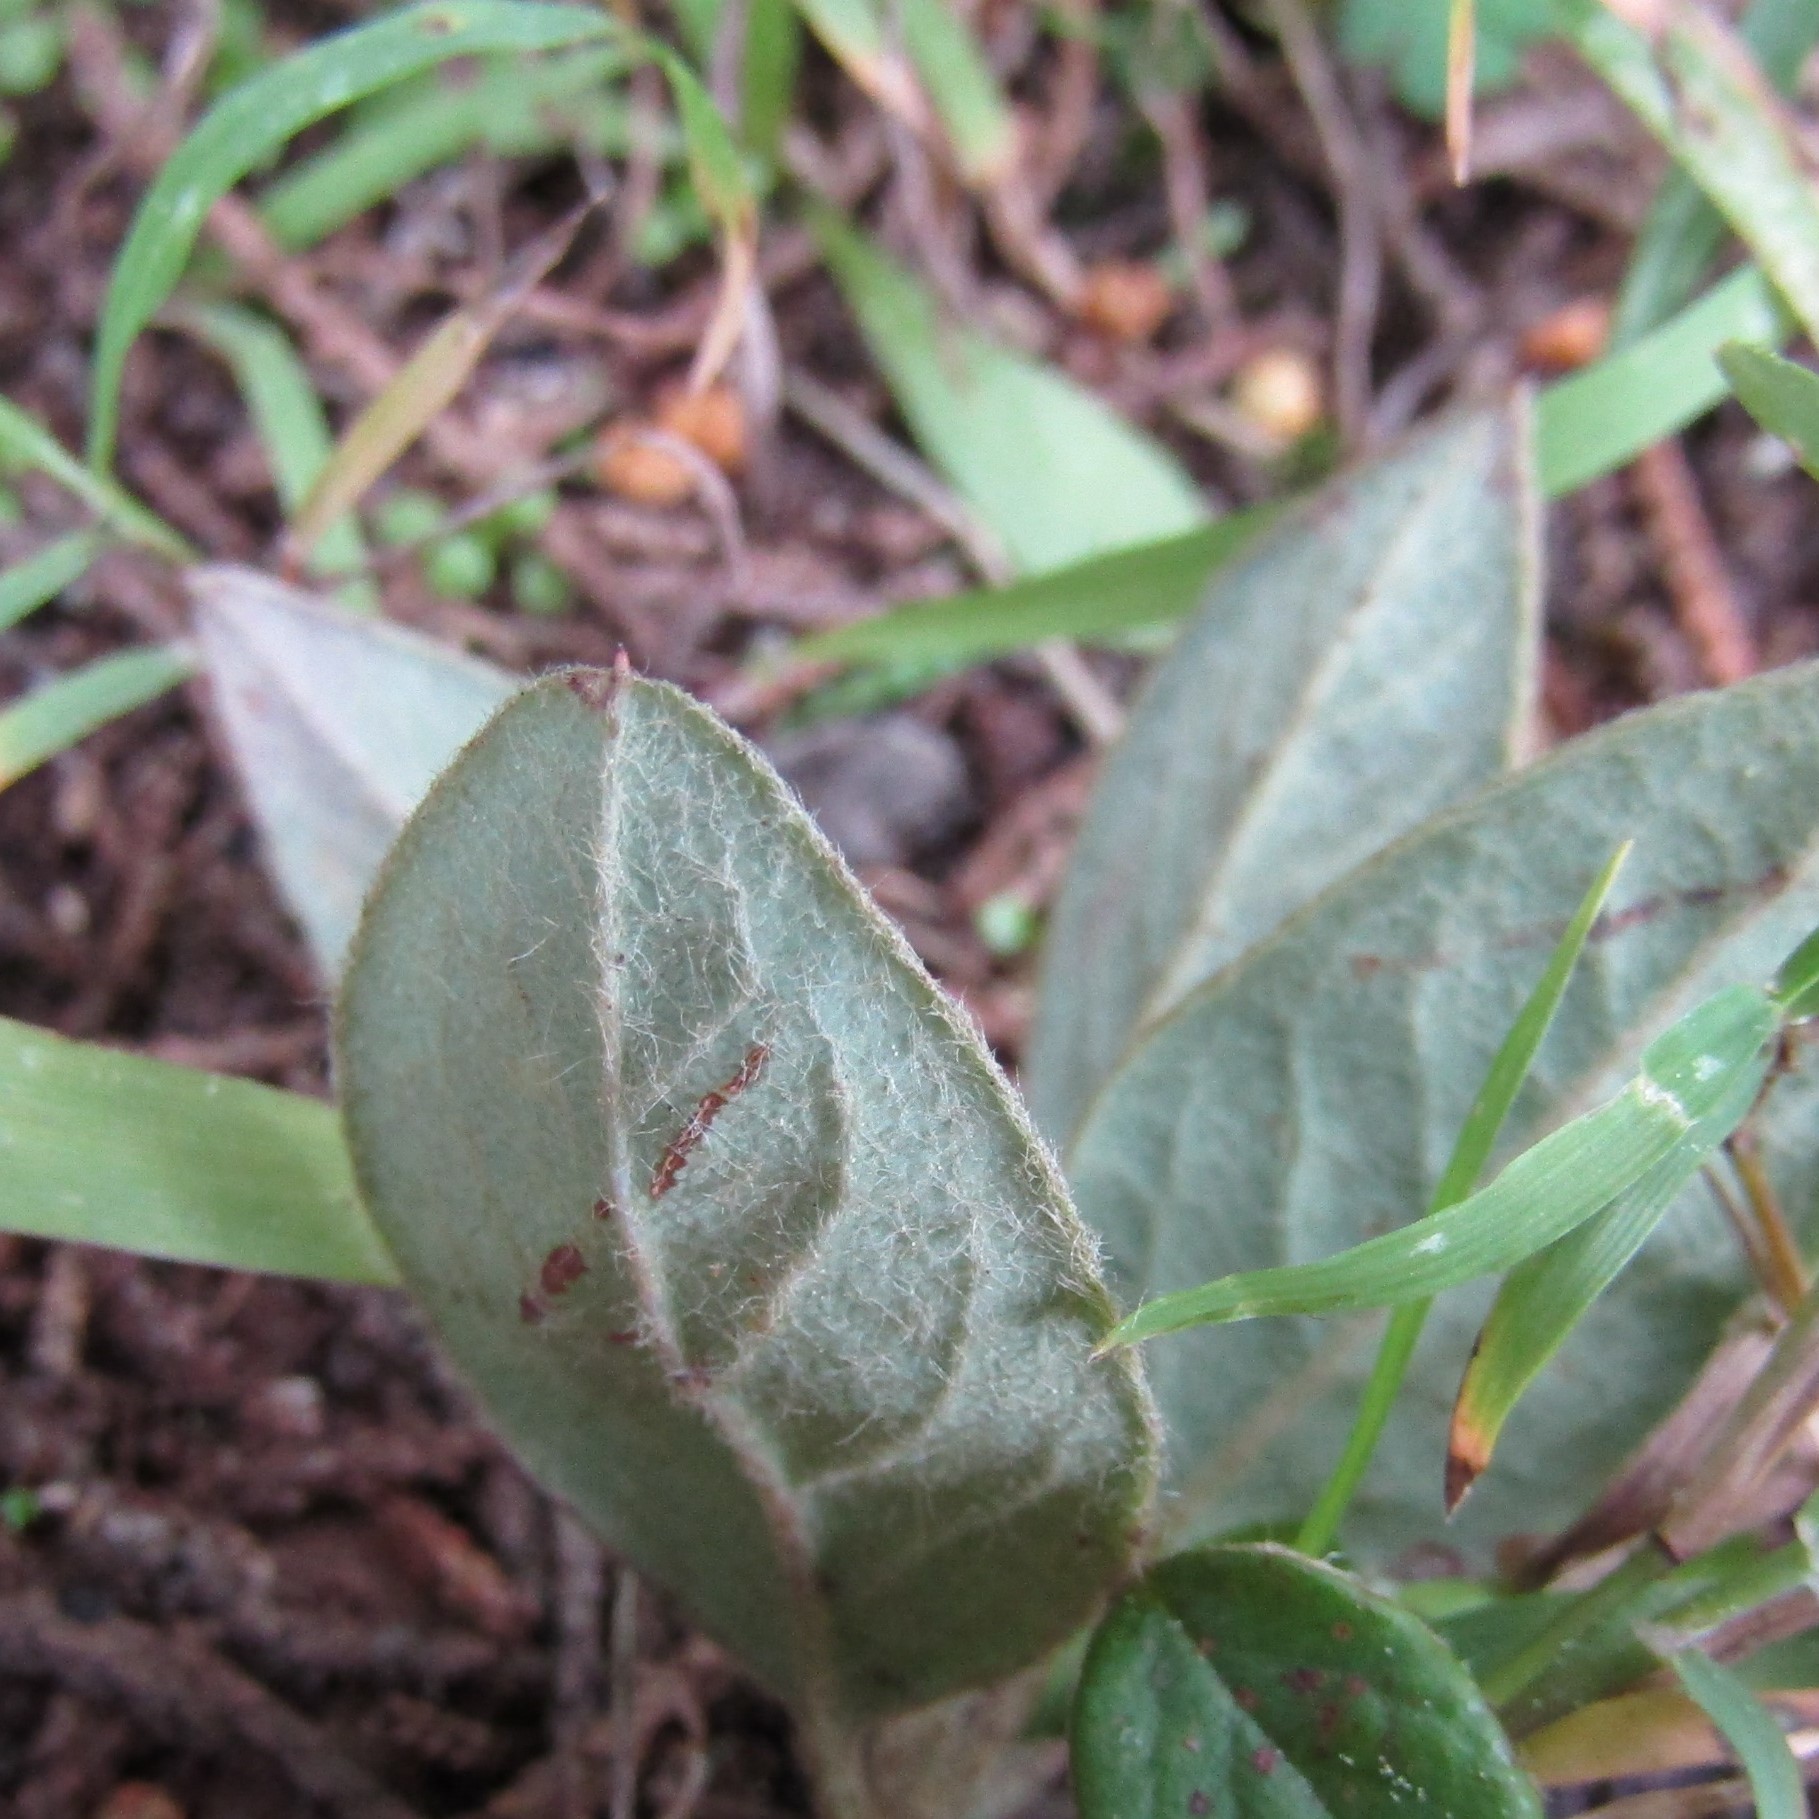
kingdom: Plantae
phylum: Tracheophyta
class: Magnoliopsida
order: Rosales
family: Rosaceae
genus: Cotoneaster
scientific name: Cotoneaster coriaceus
